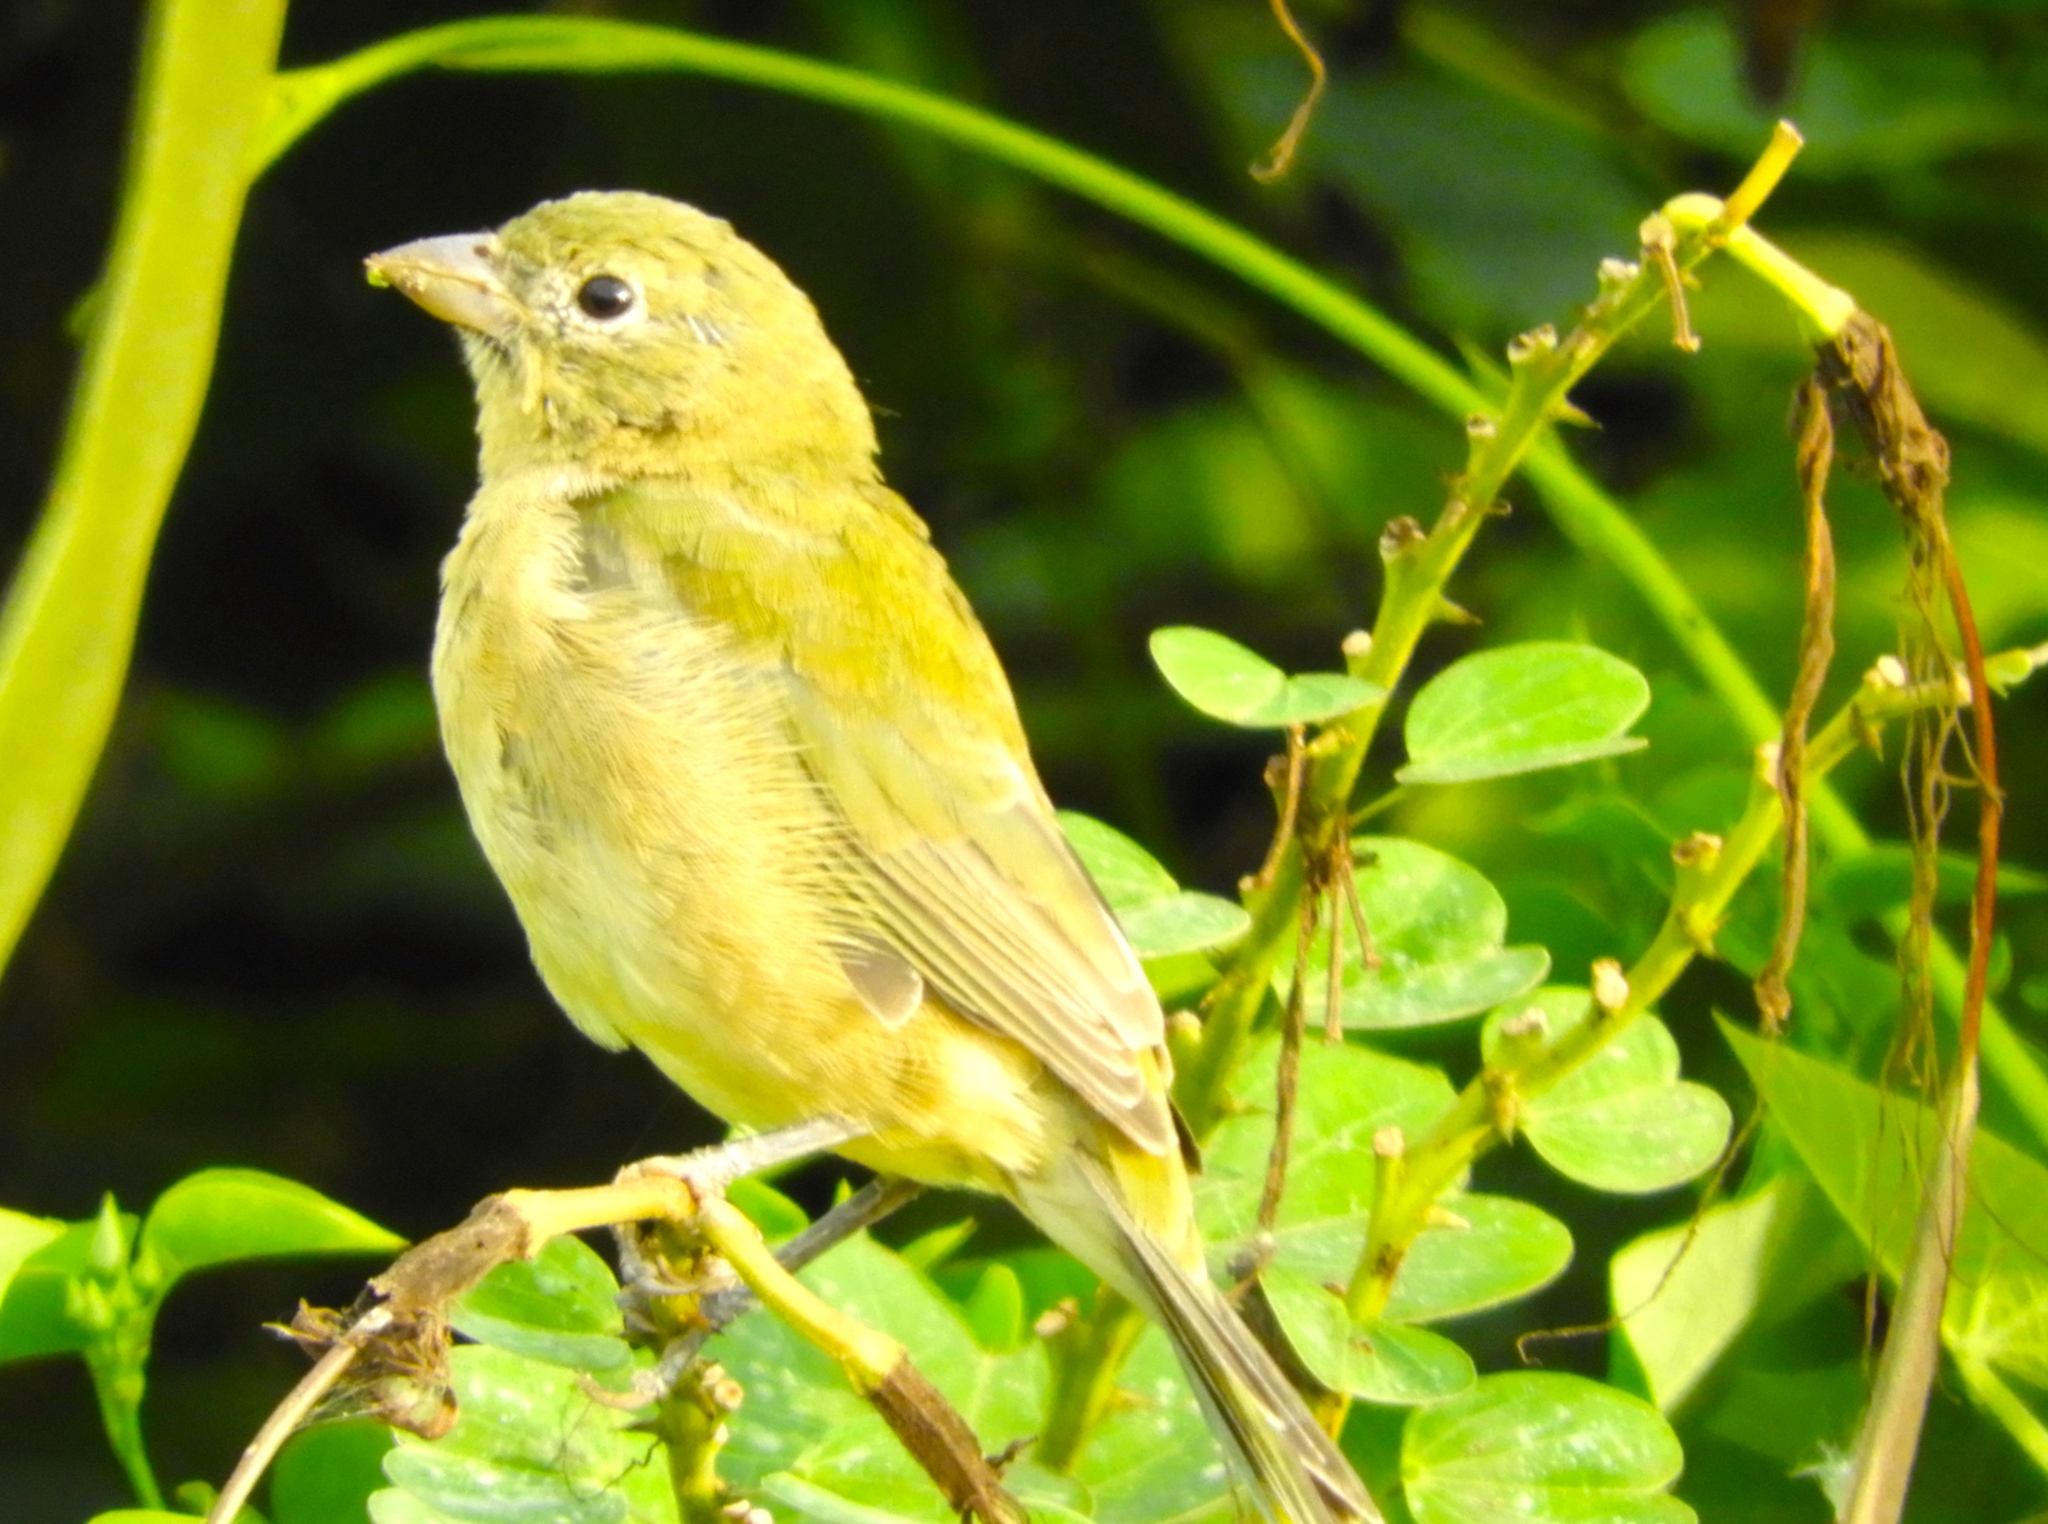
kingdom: Animalia
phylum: Chordata
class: Aves
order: Passeriformes
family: Cardinalidae
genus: Passerina
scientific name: Passerina ciris
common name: Painted bunting
